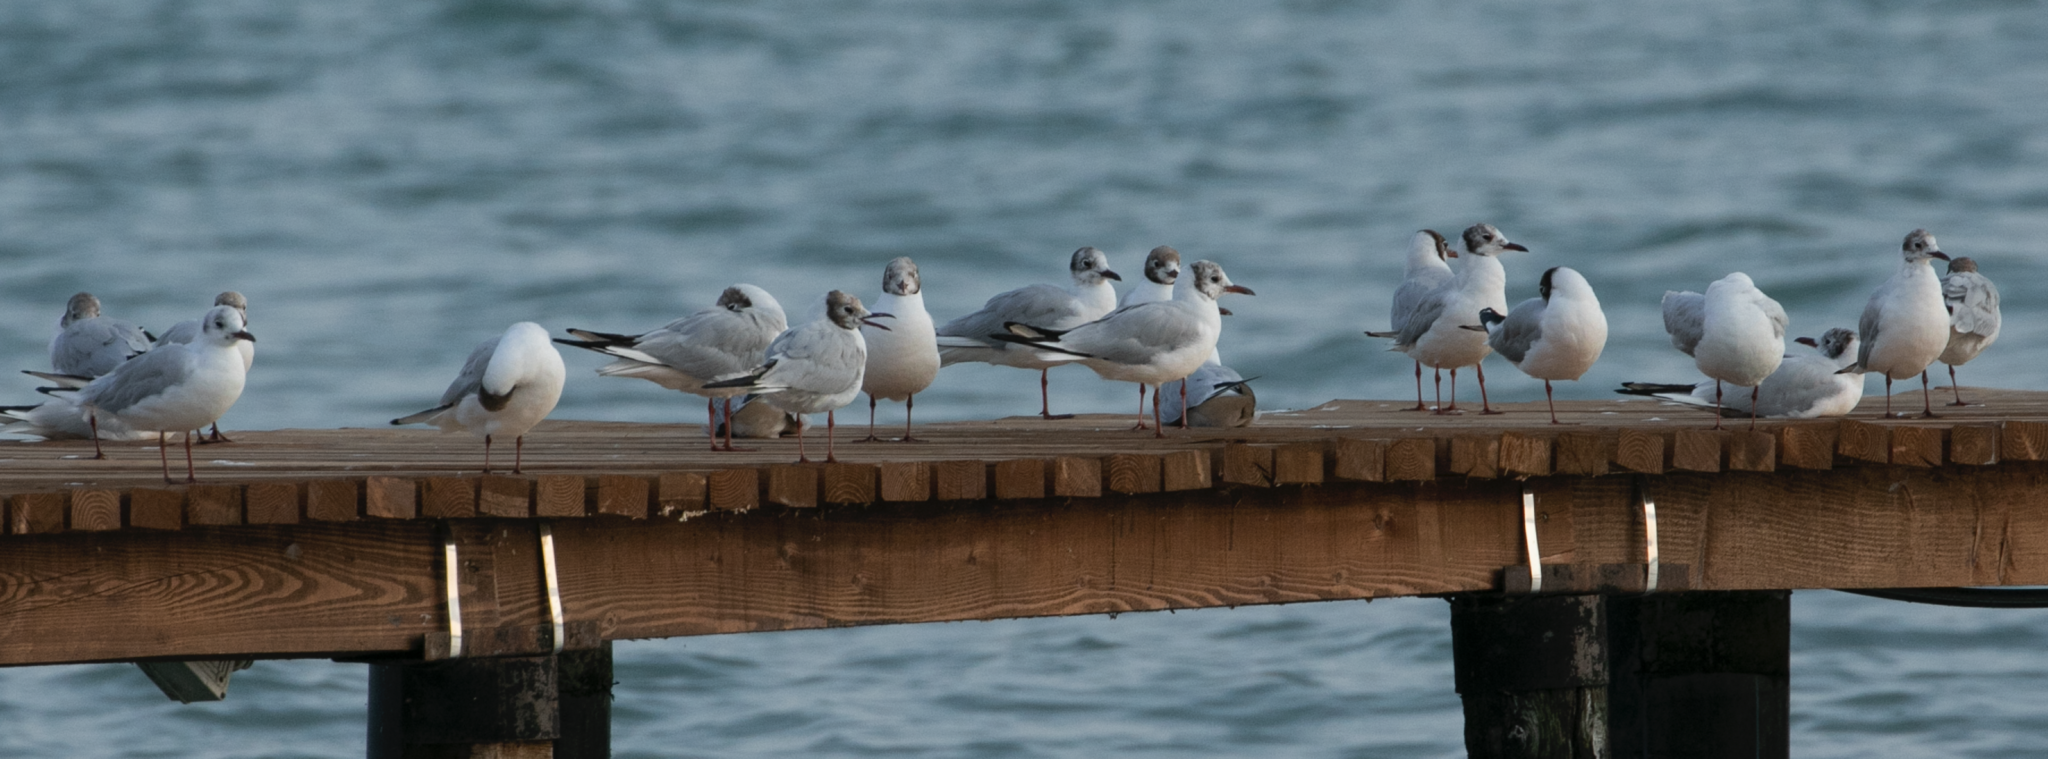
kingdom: Animalia
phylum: Chordata
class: Aves
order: Charadriiformes
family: Laridae
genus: Chroicocephalus
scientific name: Chroicocephalus ridibundus
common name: Black-headed gull
